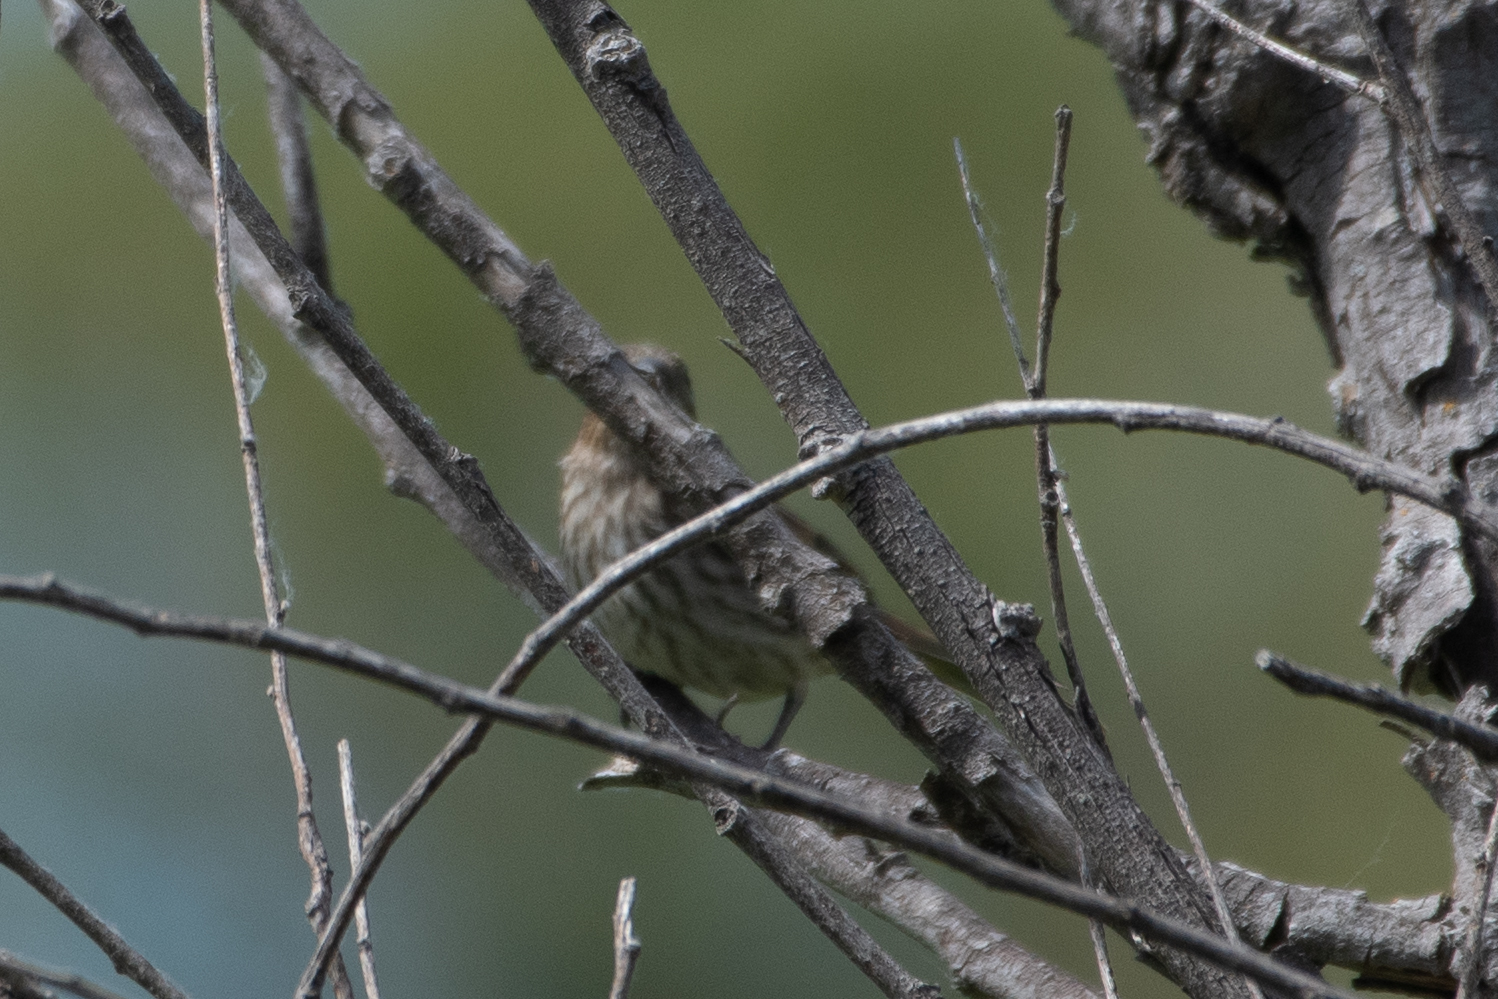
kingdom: Animalia
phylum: Chordata
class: Aves
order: Passeriformes
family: Fringillidae
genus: Haemorhous
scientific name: Haemorhous mexicanus
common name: House finch
